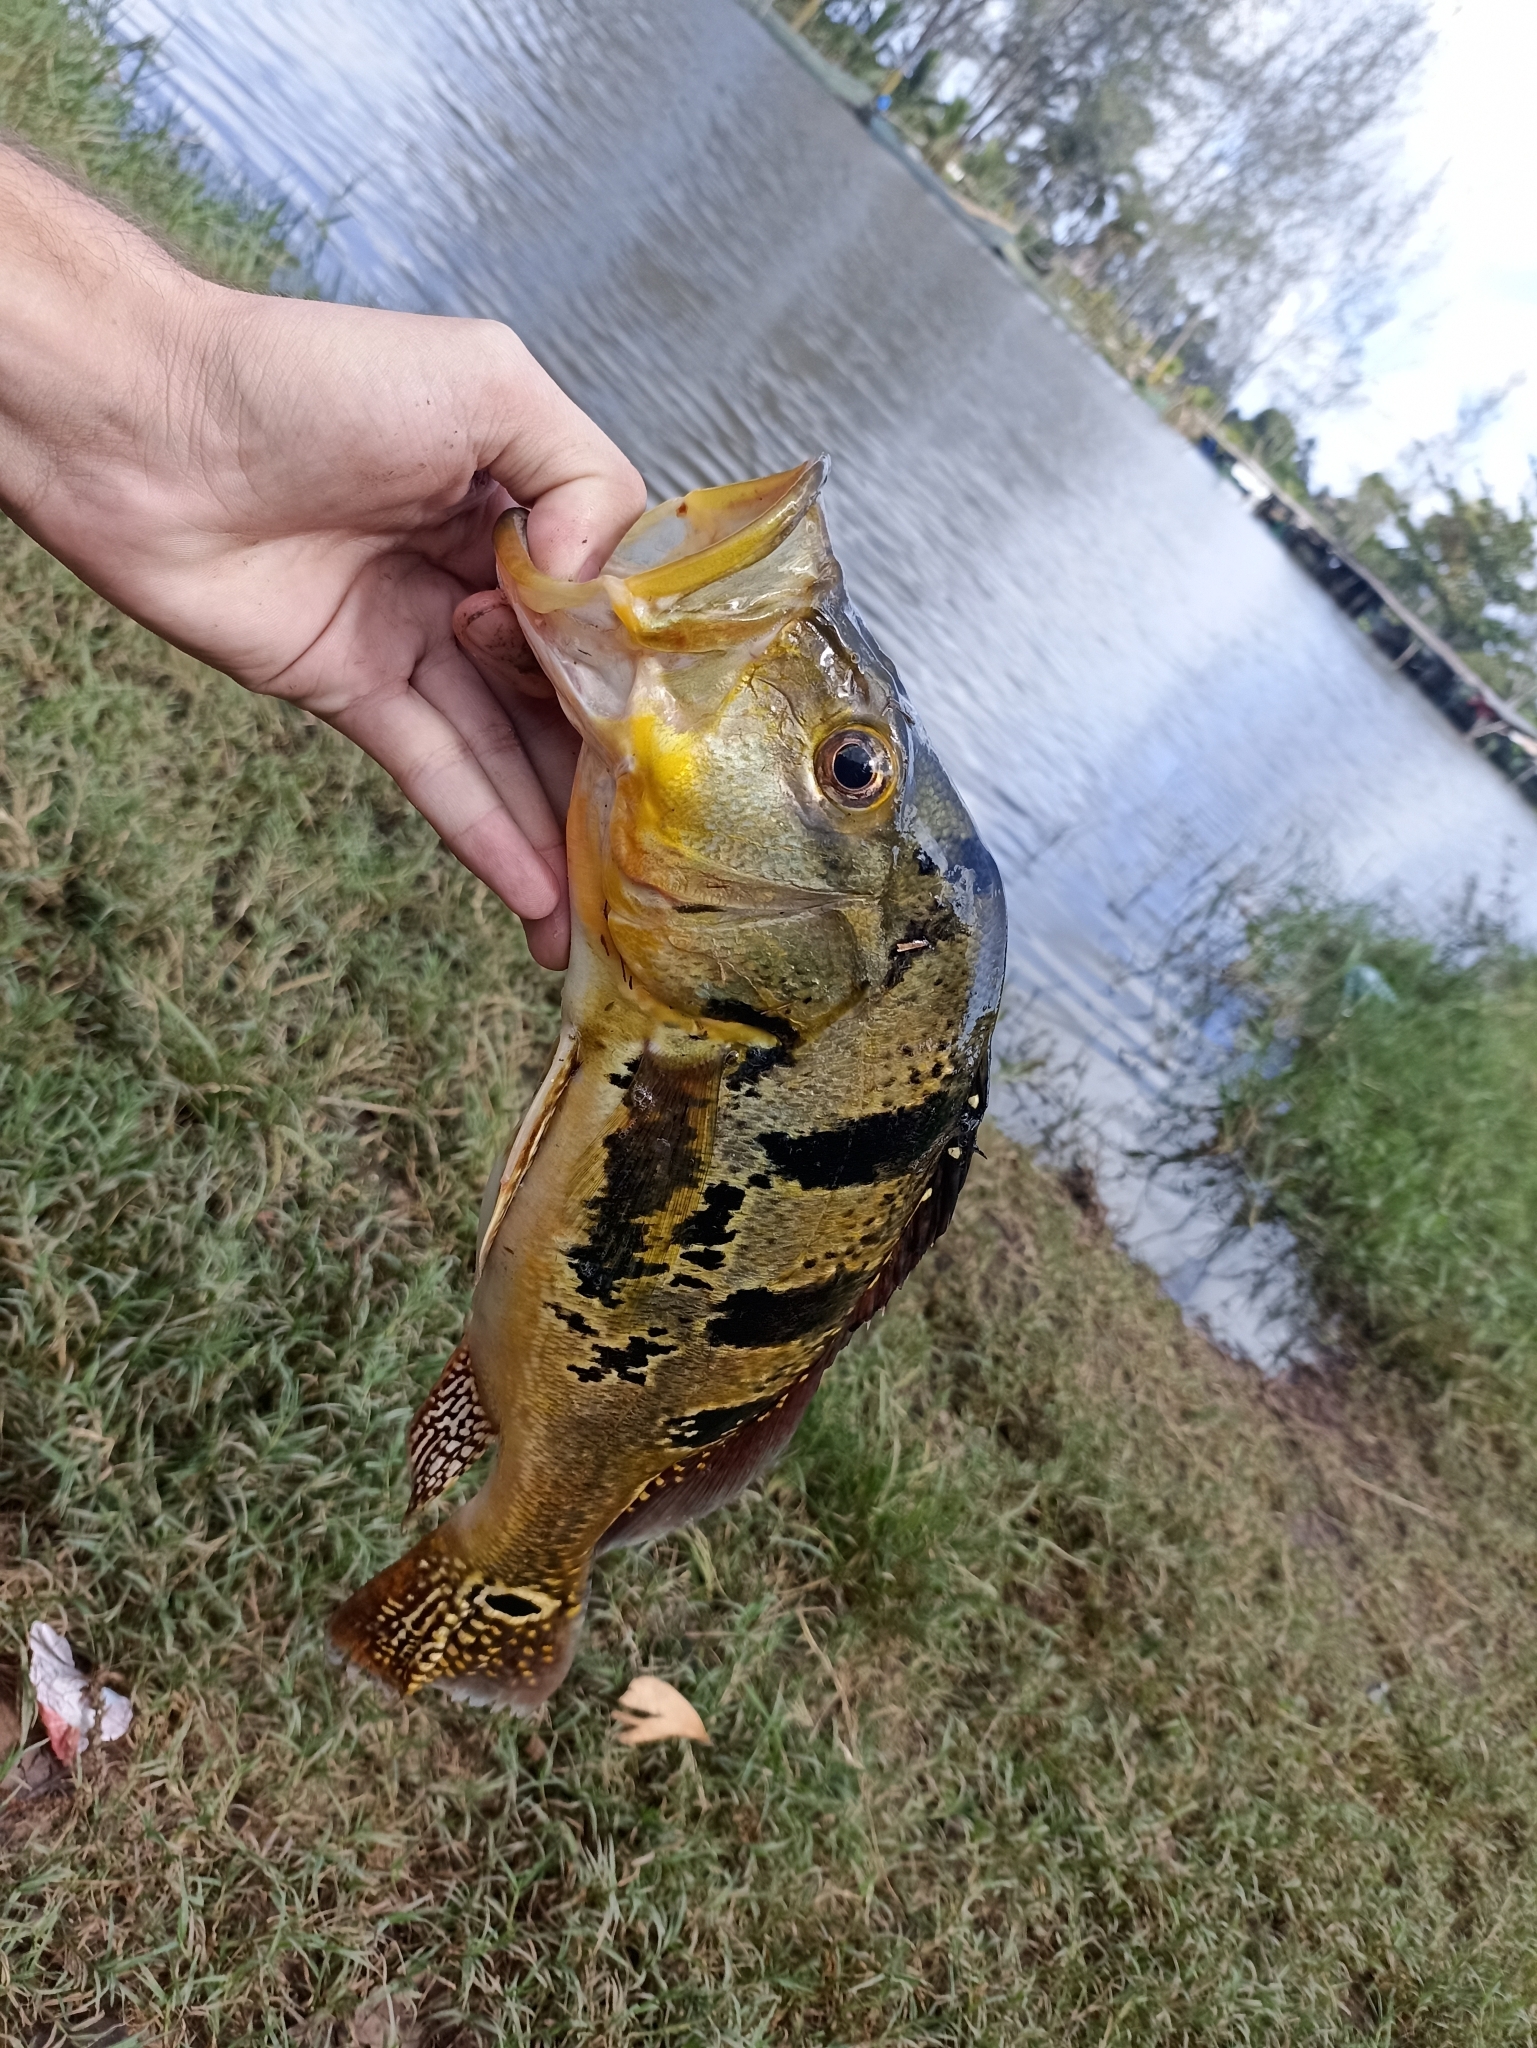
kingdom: Animalia
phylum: Chordata
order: Perciformes
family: Cichlidae
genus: Cichla
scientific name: Cichla ocellaris
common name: Peacock cichlid
